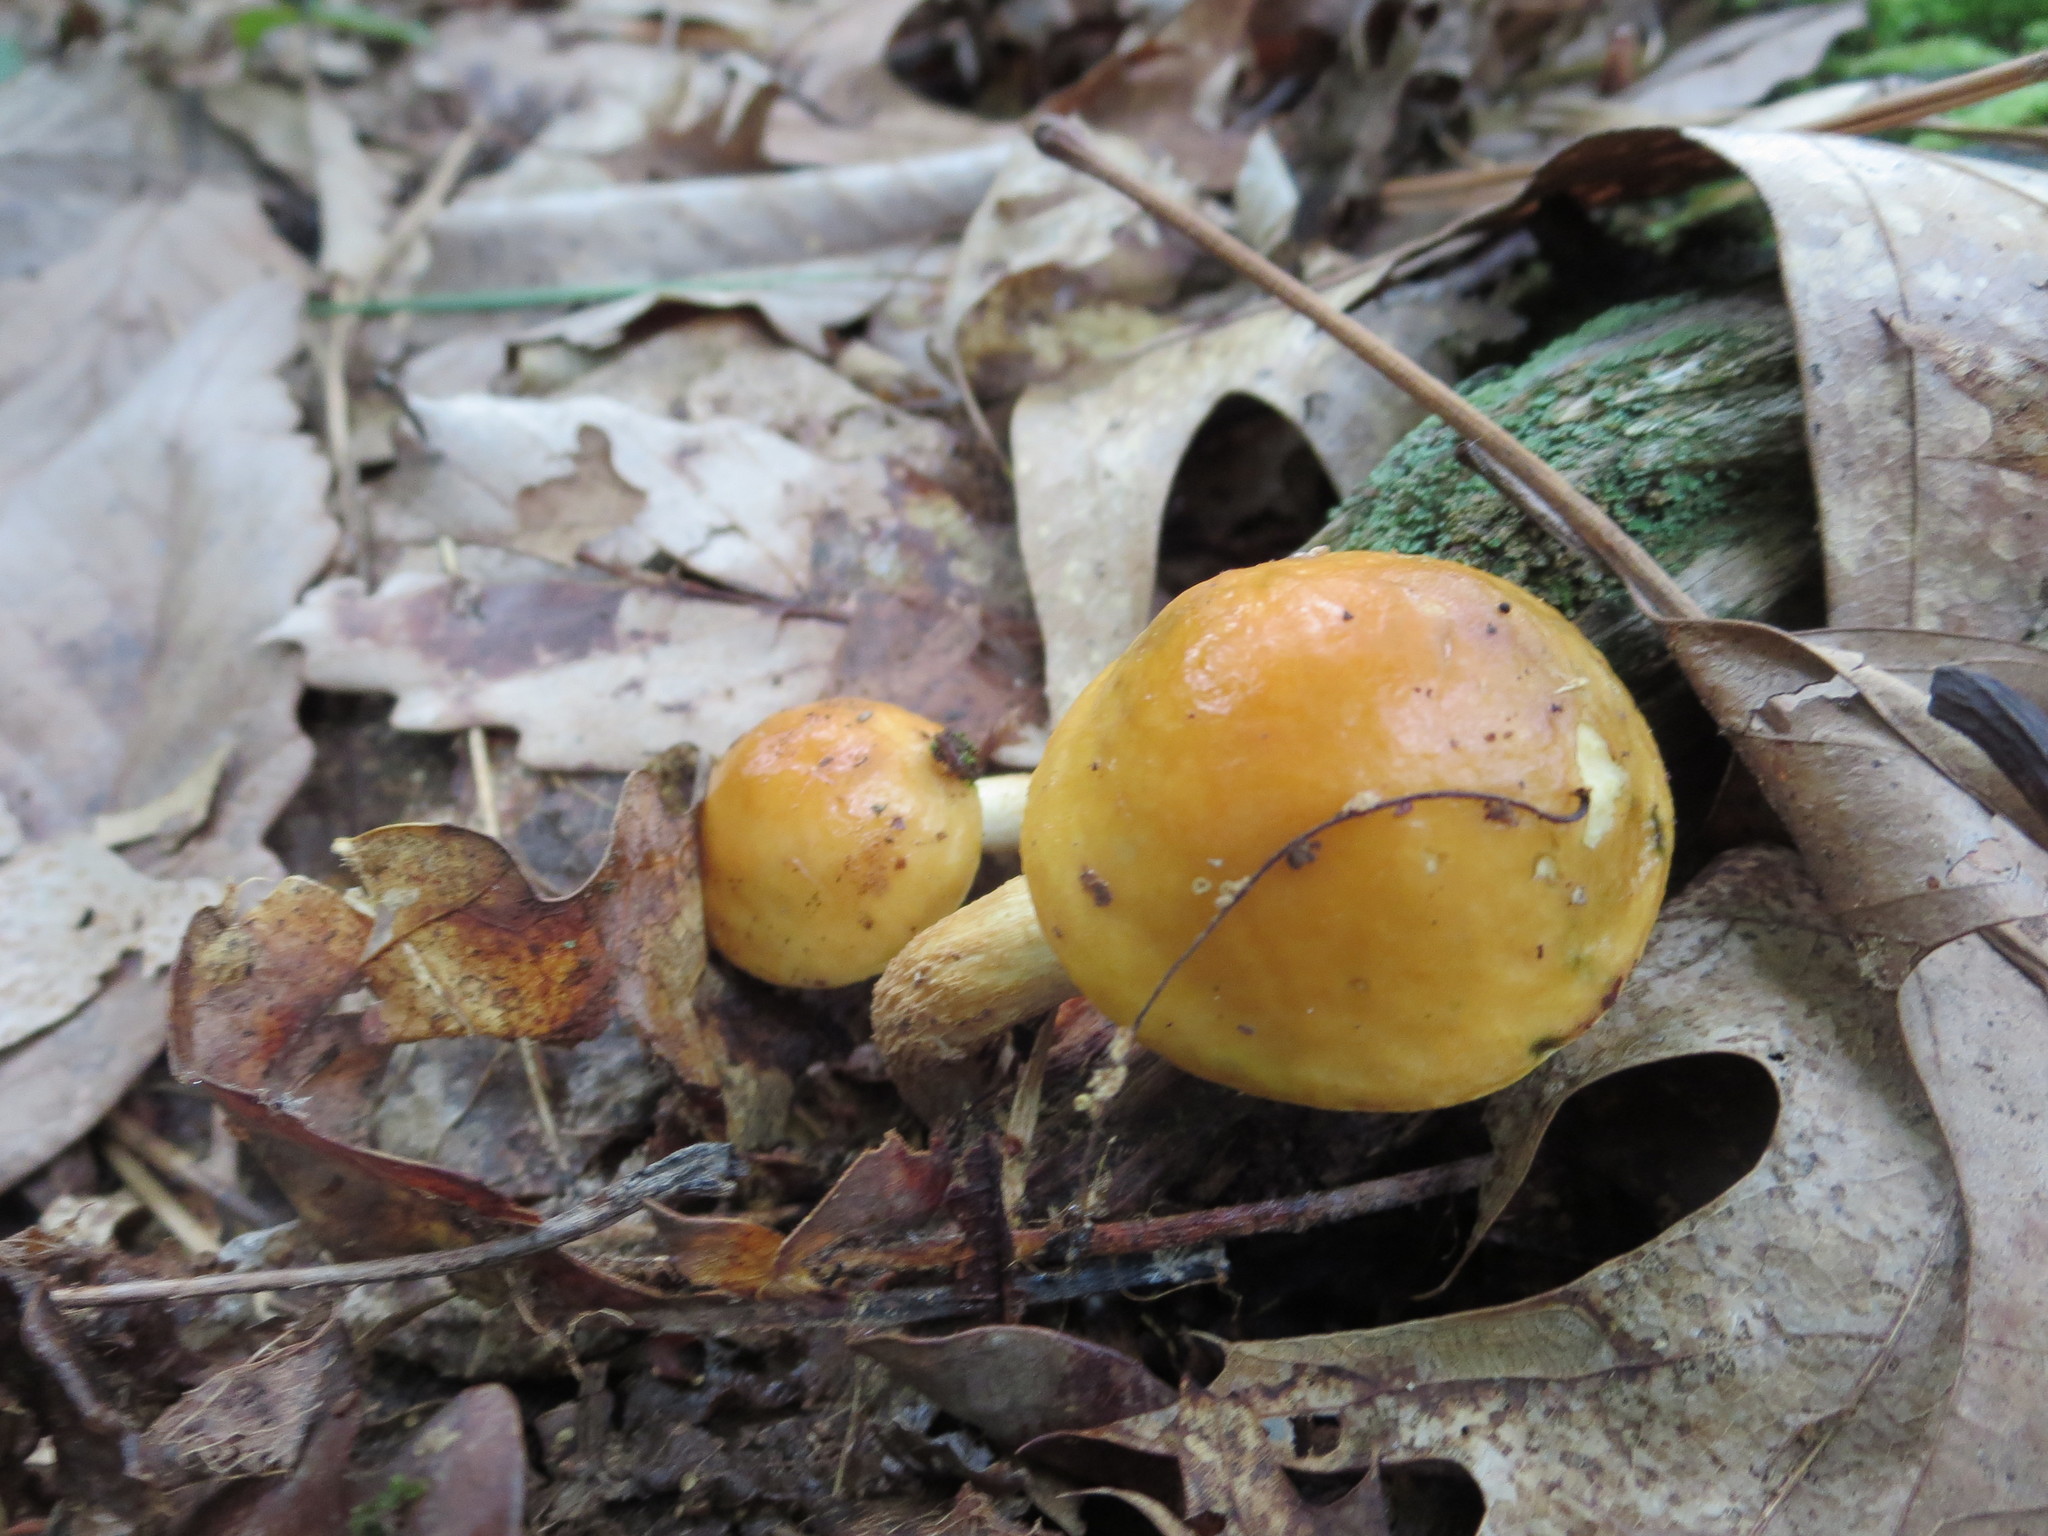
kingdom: Fungi
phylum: Basidiomycota
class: Agaricomycetes
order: Boletales
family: Boletaceae
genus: Leccinum
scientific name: Leccinum longicurvipes
